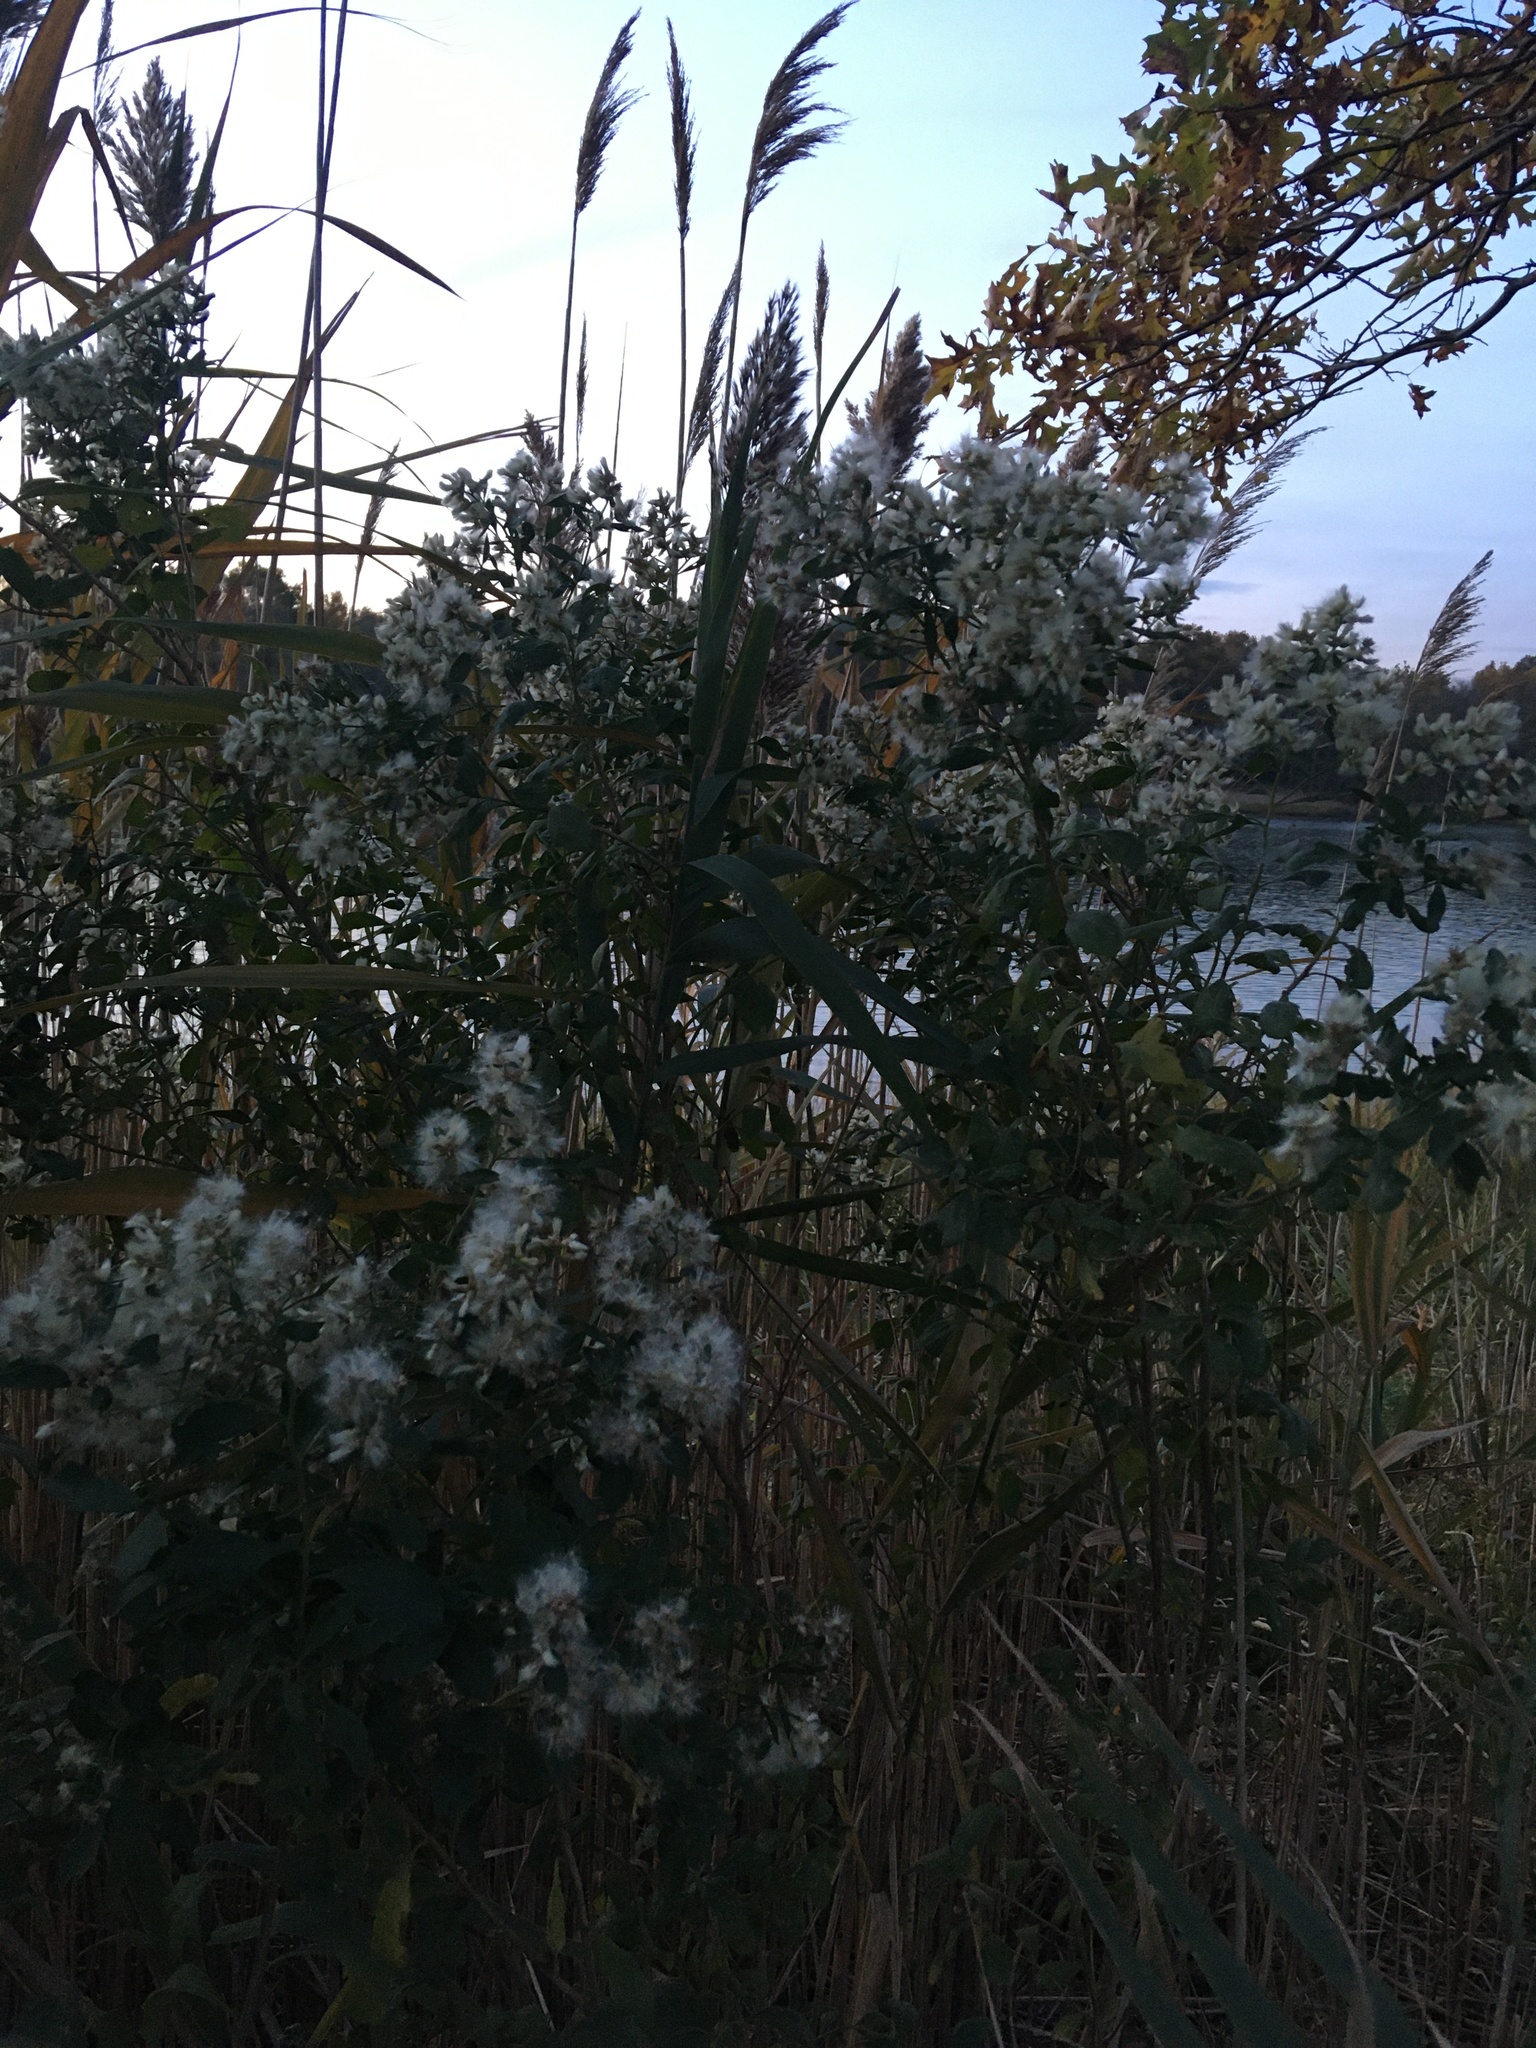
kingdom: Plantae
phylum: Tracheophyta
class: Magnoliopsida
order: Asterales
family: Asteraceae
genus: Baccharis
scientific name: Baccharis halimifolia
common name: Eastern baccharis
